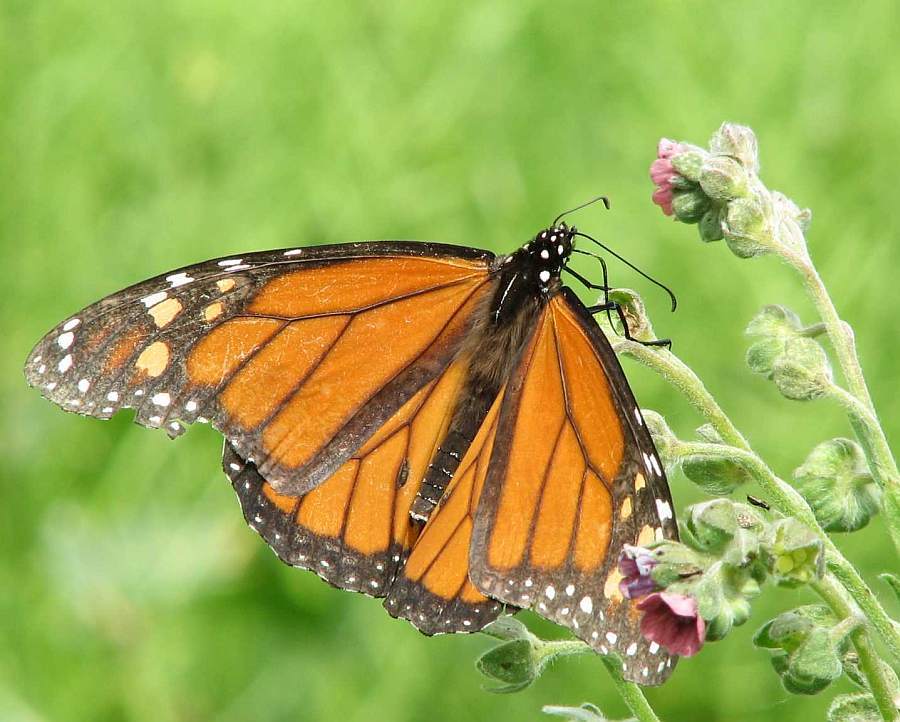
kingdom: Animalia
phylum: Arthropoda
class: Insecta
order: Lepidoptera
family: Nymphalidae
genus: Danaus
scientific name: Danaus plexippus
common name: Monarch
